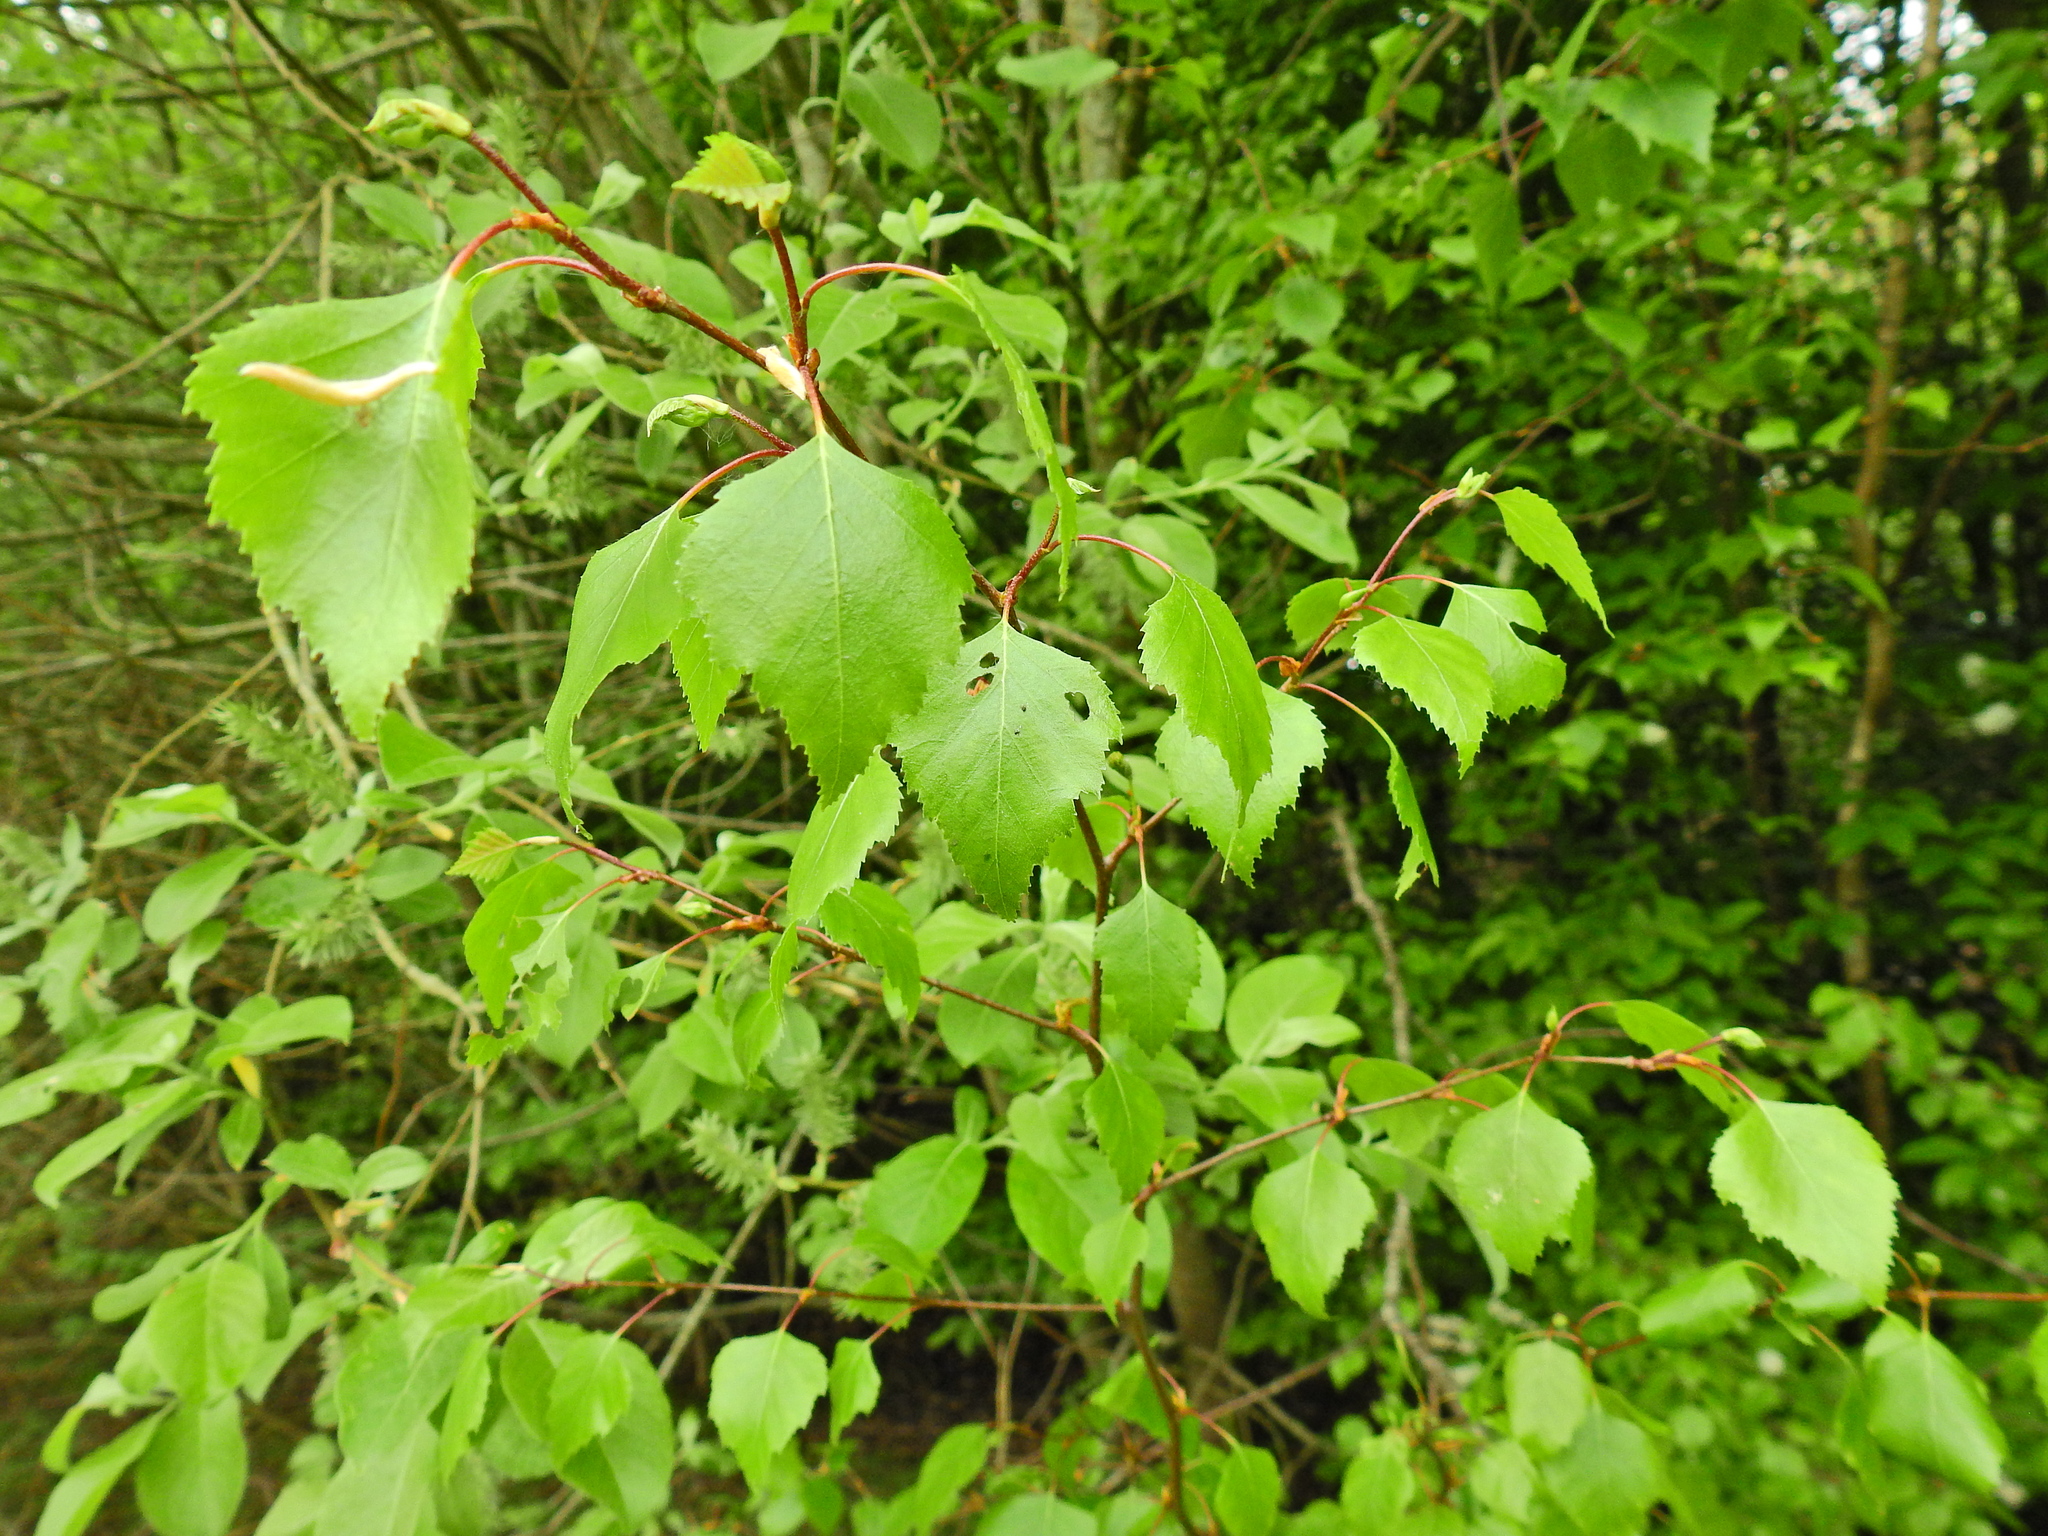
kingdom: Plantae
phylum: Tracheophyta
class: Magnoliopsida
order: Fagales
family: Betulaceae
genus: Betula
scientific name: Betula pendula
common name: Silver birch
